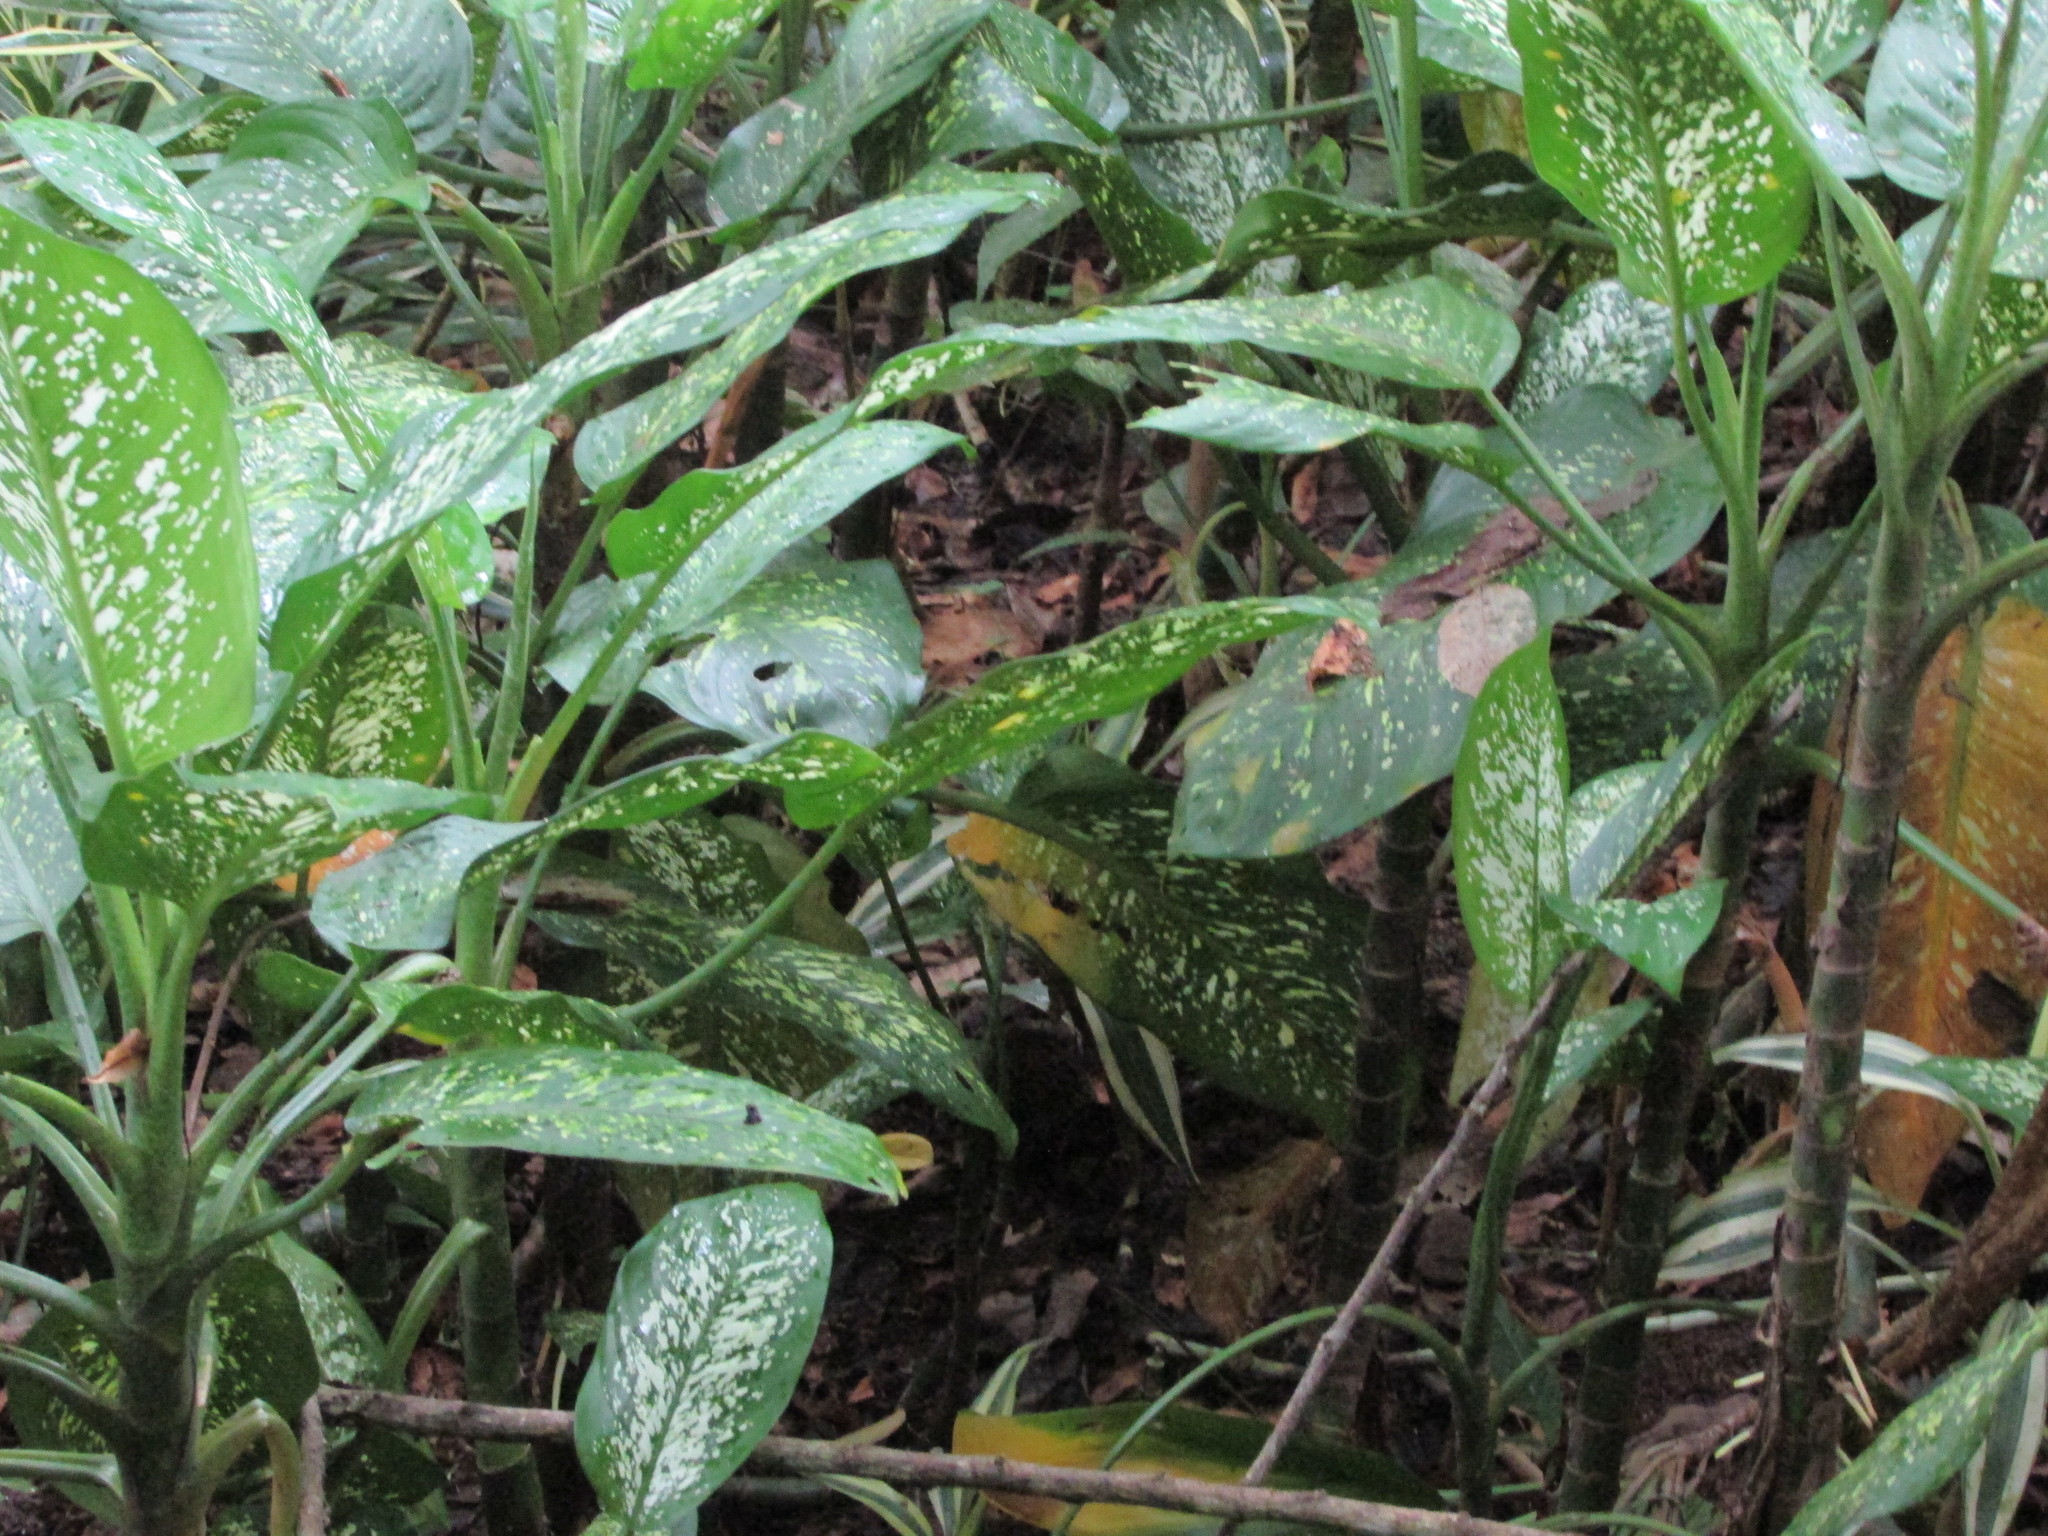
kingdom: Plantae
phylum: Tracheophyta
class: Liliopsida
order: Alismatales
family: Araceae
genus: Dieffenbachia
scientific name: Dieffenbachia seguine
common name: Dumbcane
